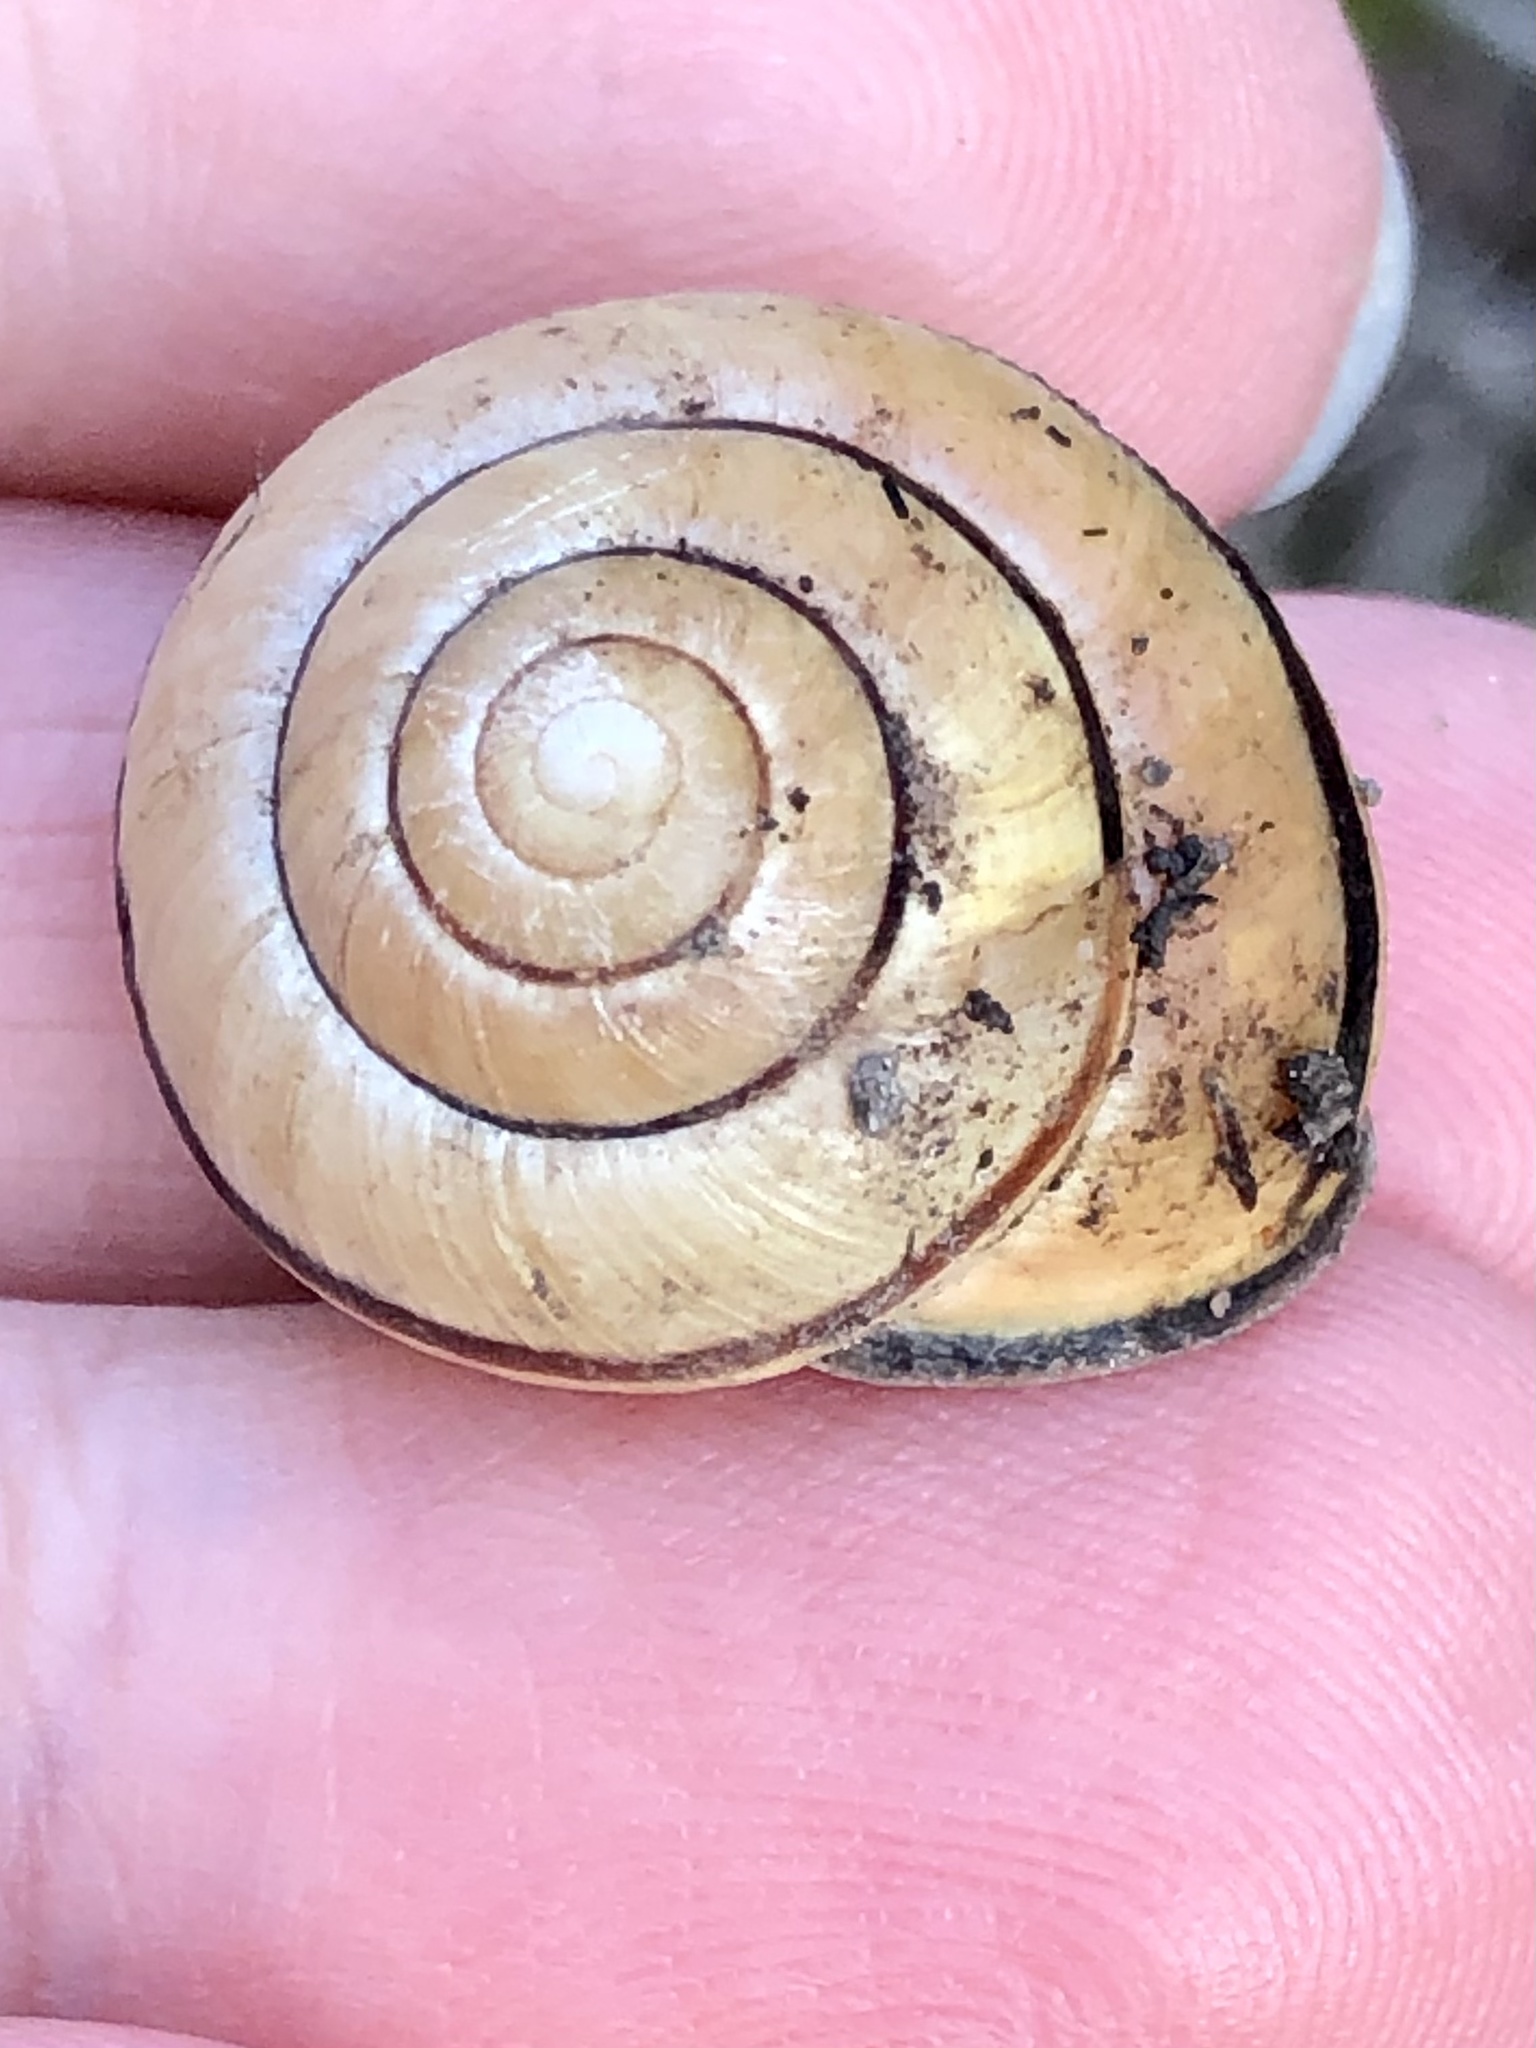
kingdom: Animalia
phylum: Mollusca
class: Gastropoda
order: Stylommatophora
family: Helicidae
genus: Cepaea
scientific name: Cepaea nemoralis
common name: Grovesnail
